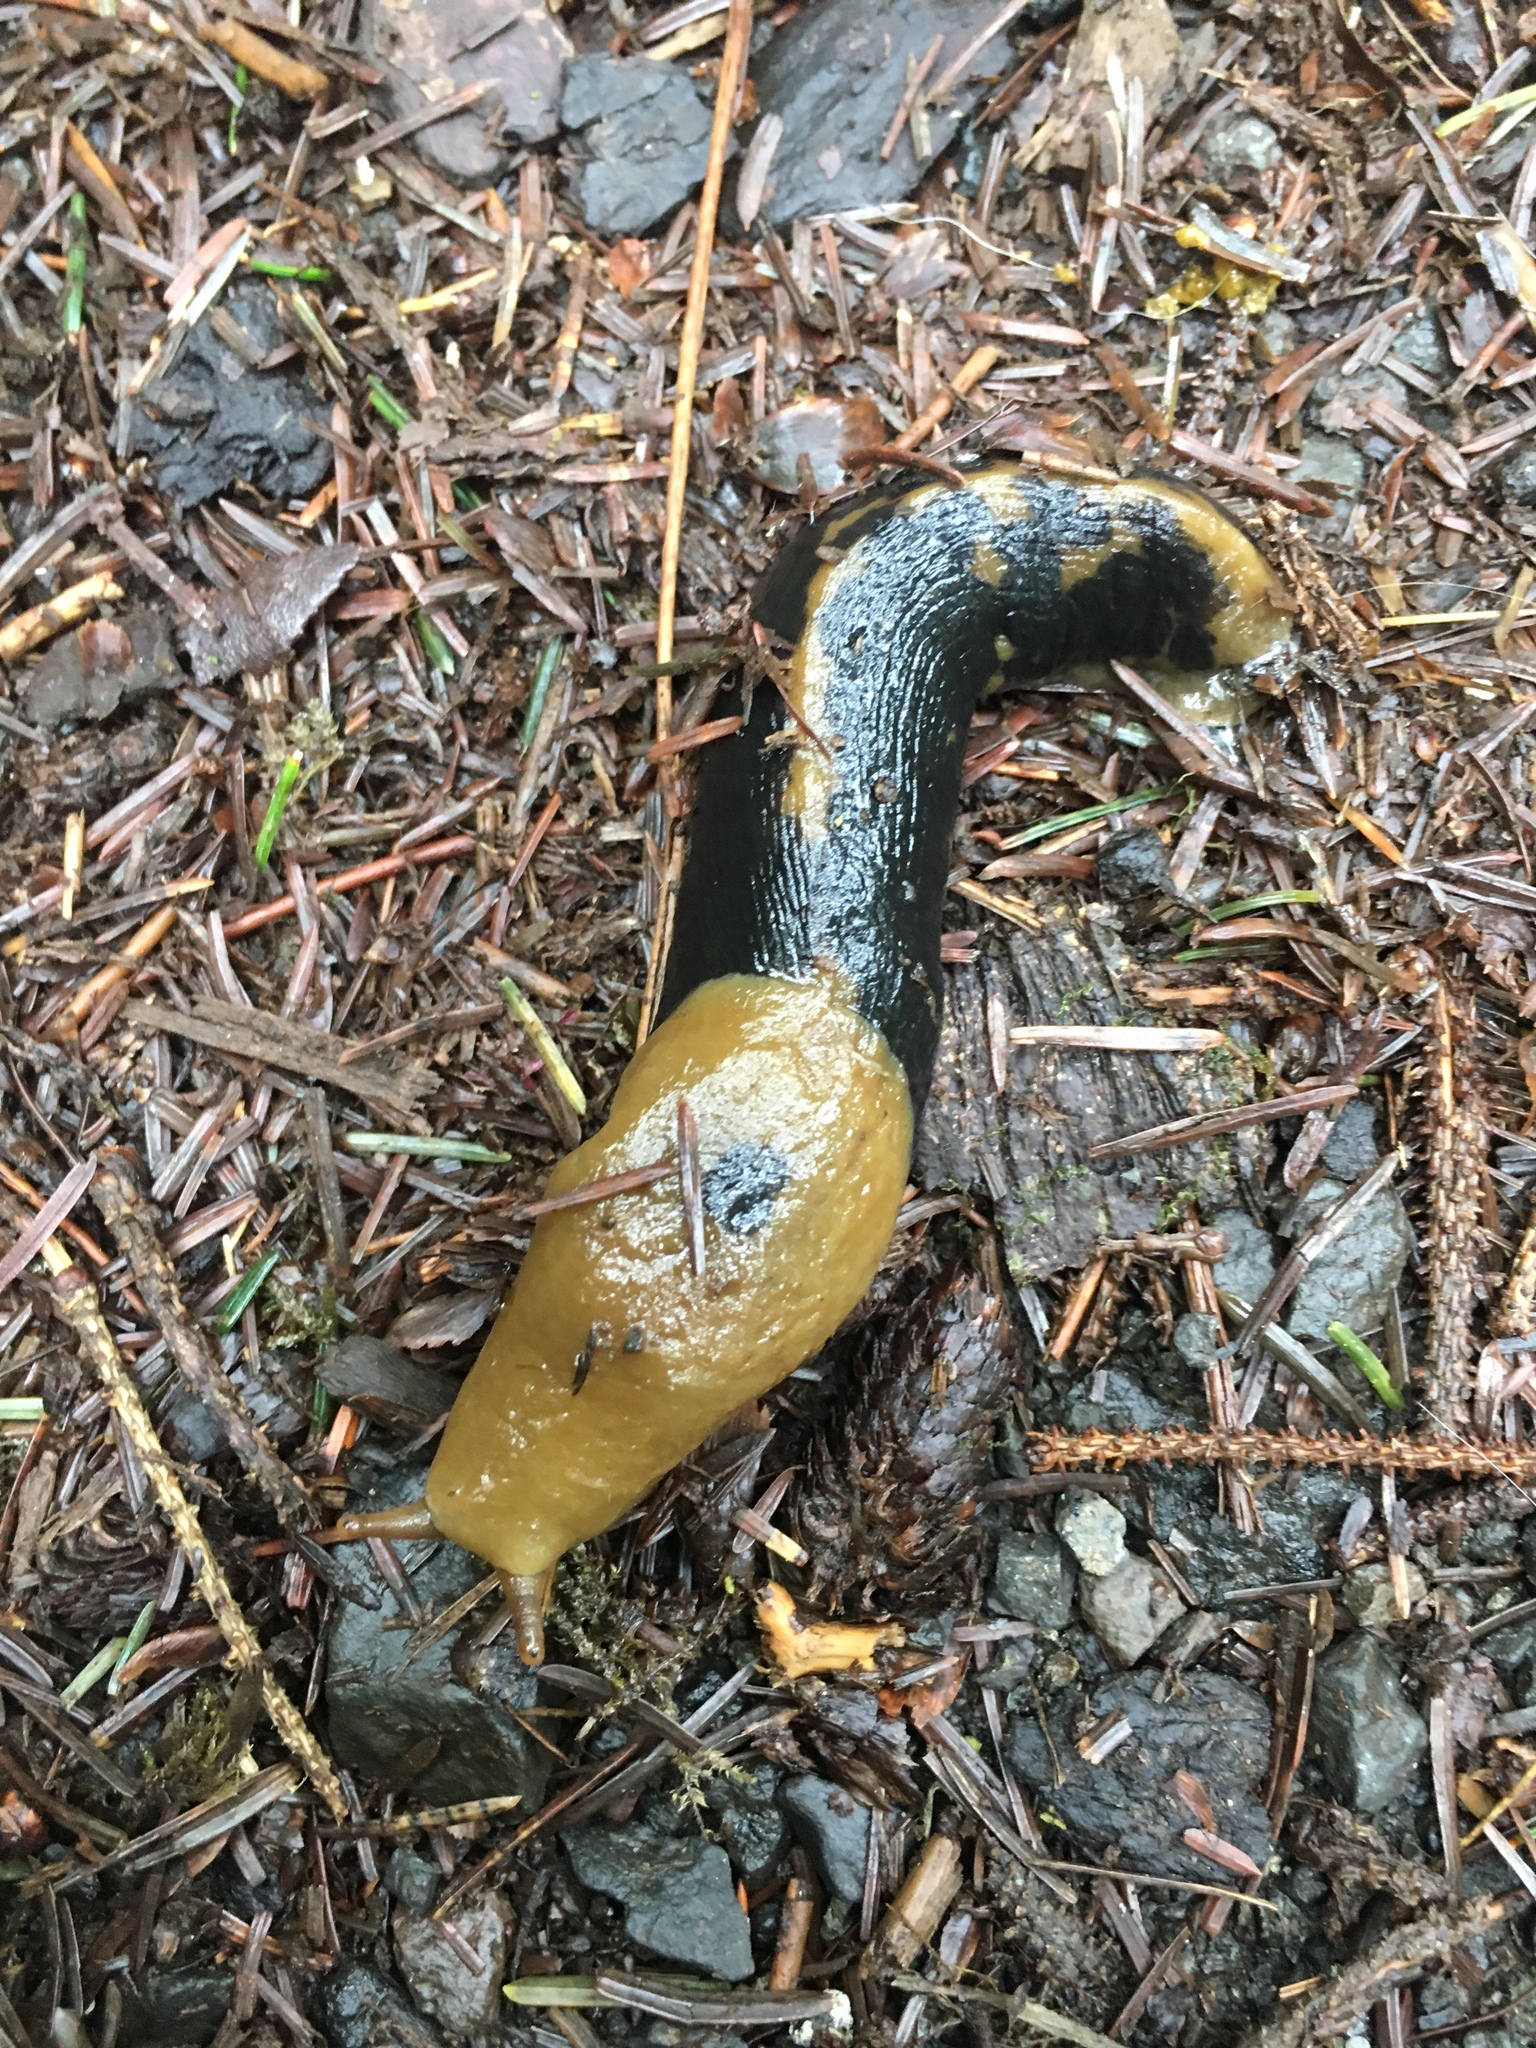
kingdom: Animalia
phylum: Mollusca
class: Gastropoda
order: Stylommatophora
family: Ariolimacidae
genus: Ariolimax
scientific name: Ariolimax columbianus
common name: Pacific banana slug
